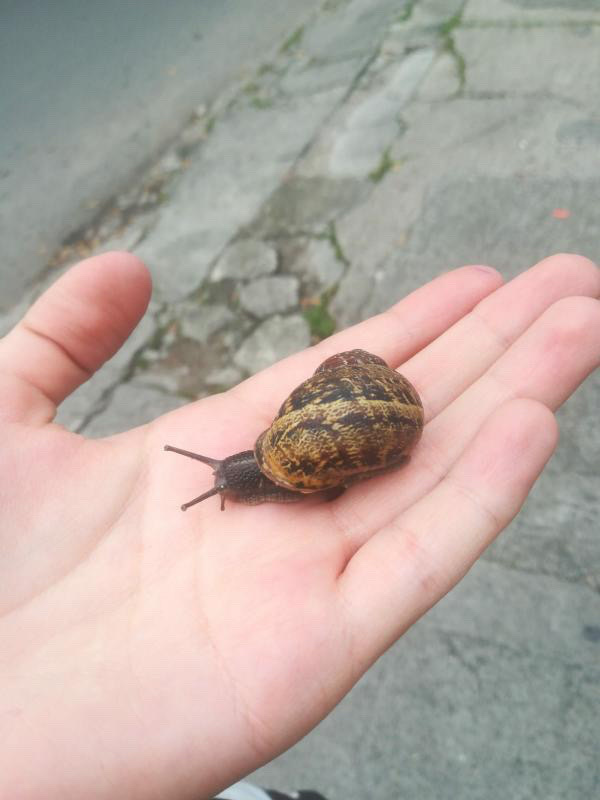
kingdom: Animalia
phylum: Mollusca
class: Gastropoda
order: Stylommatophora
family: Helicidae
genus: Cornu
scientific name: Cornu aspersum
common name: Brown garden snail
